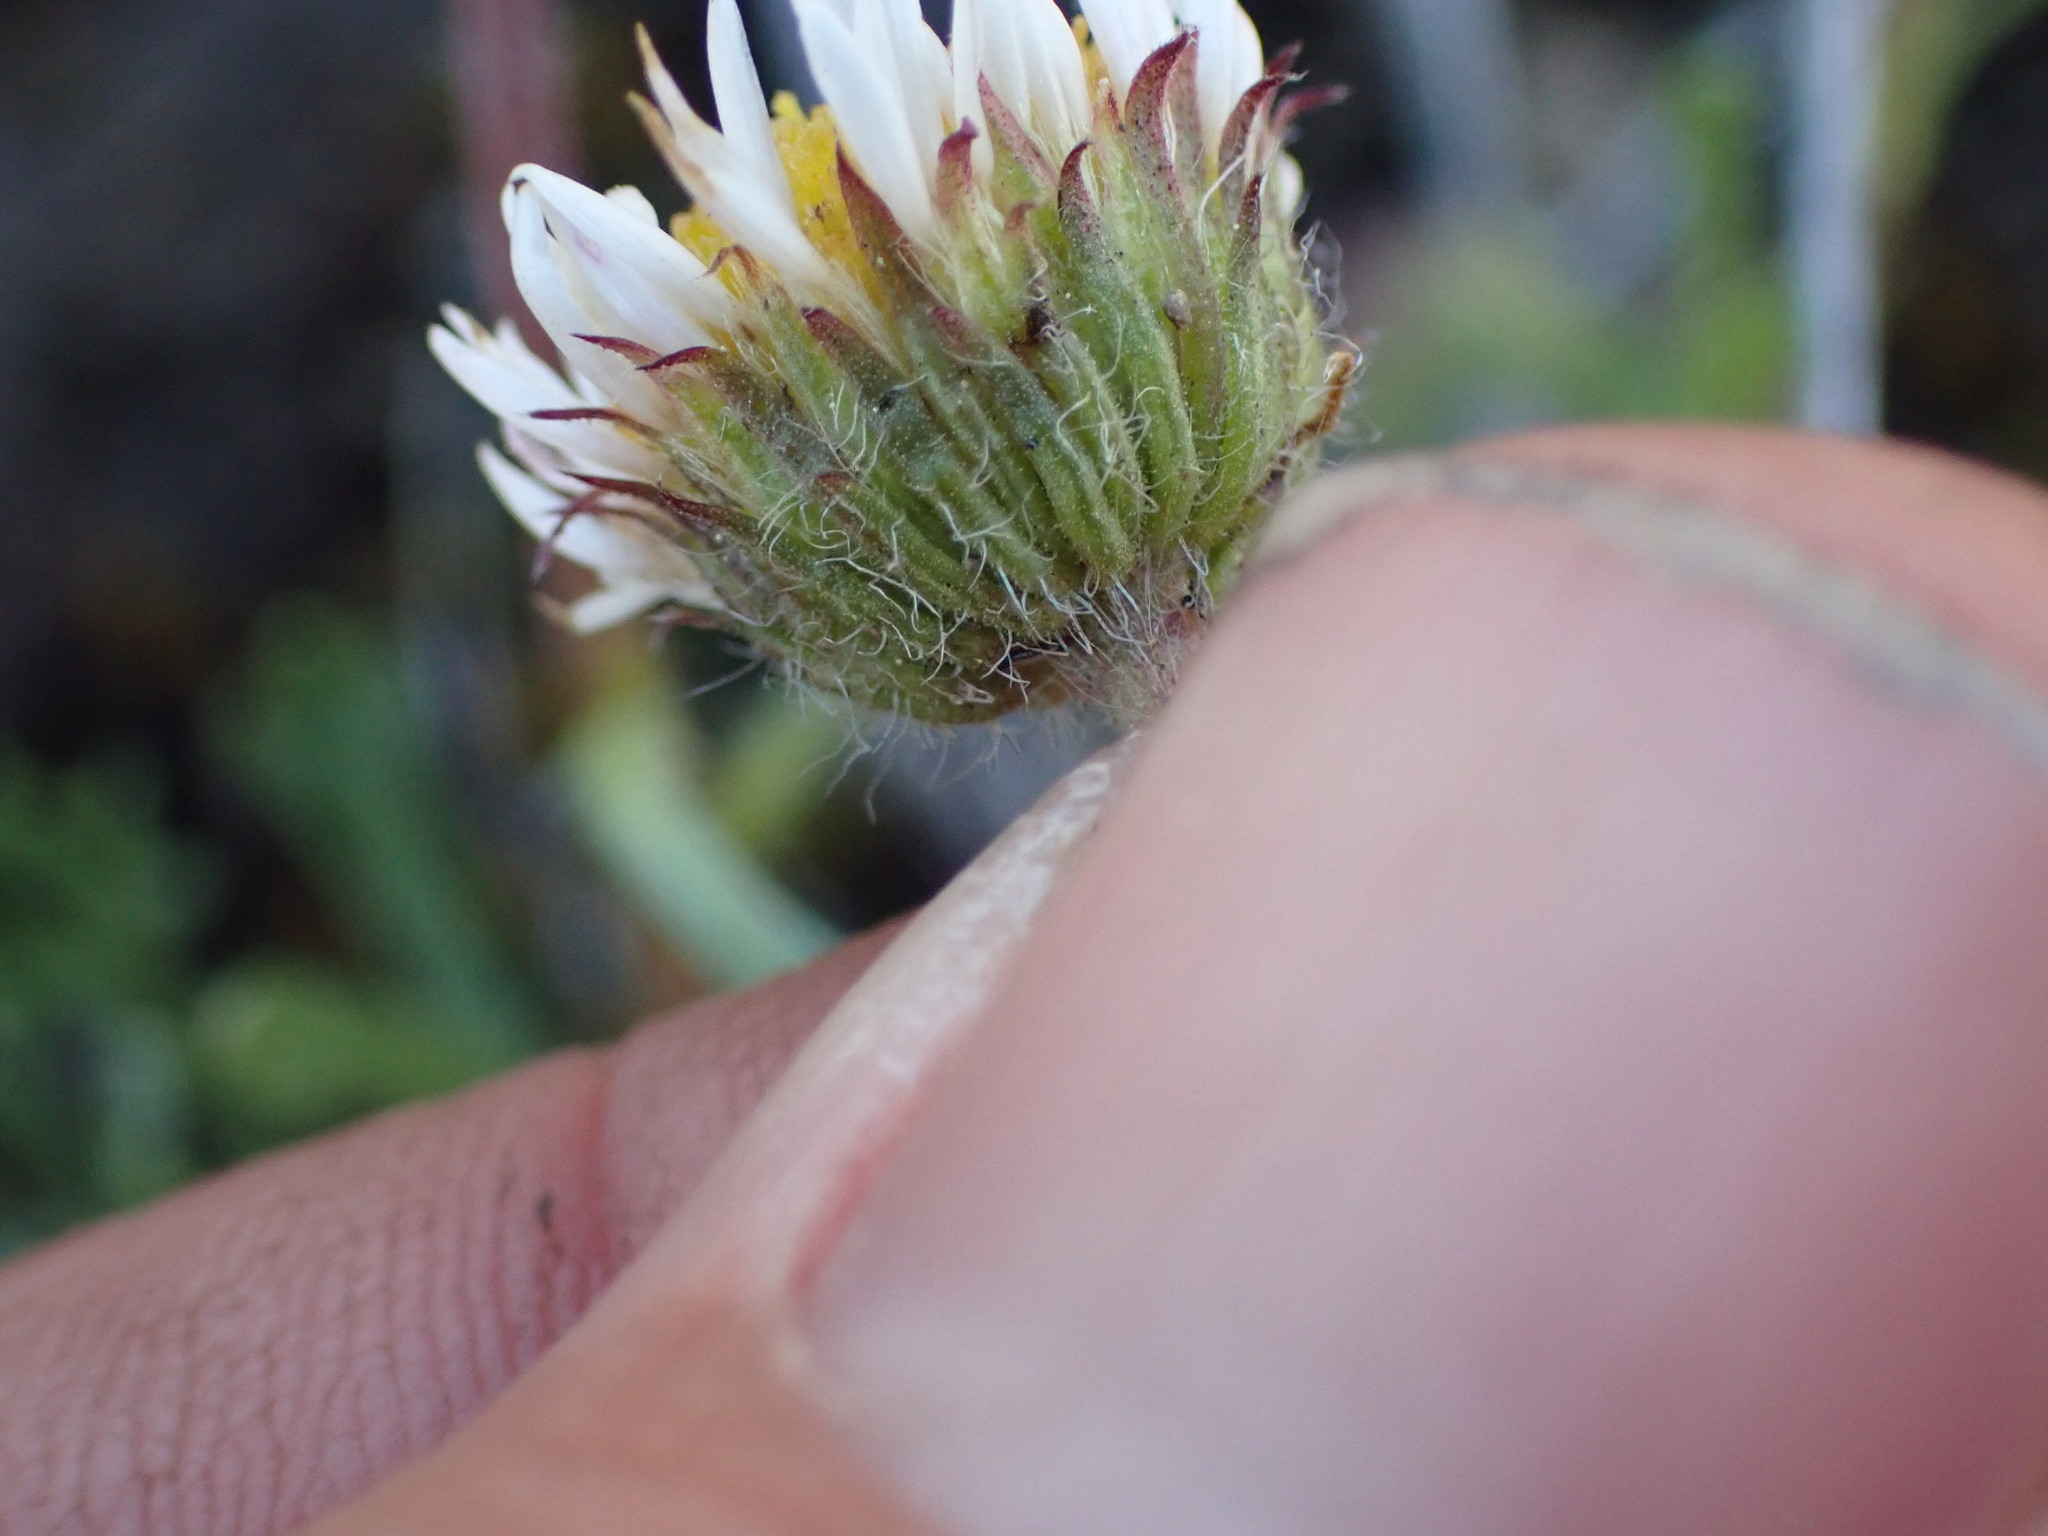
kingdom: Plantae
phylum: Tracheophyta
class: Magnoliopsida
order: Asterales
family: Asteraceae
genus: Erigeron
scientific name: Erigeron compositus
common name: Dwarf mountain fleabane
